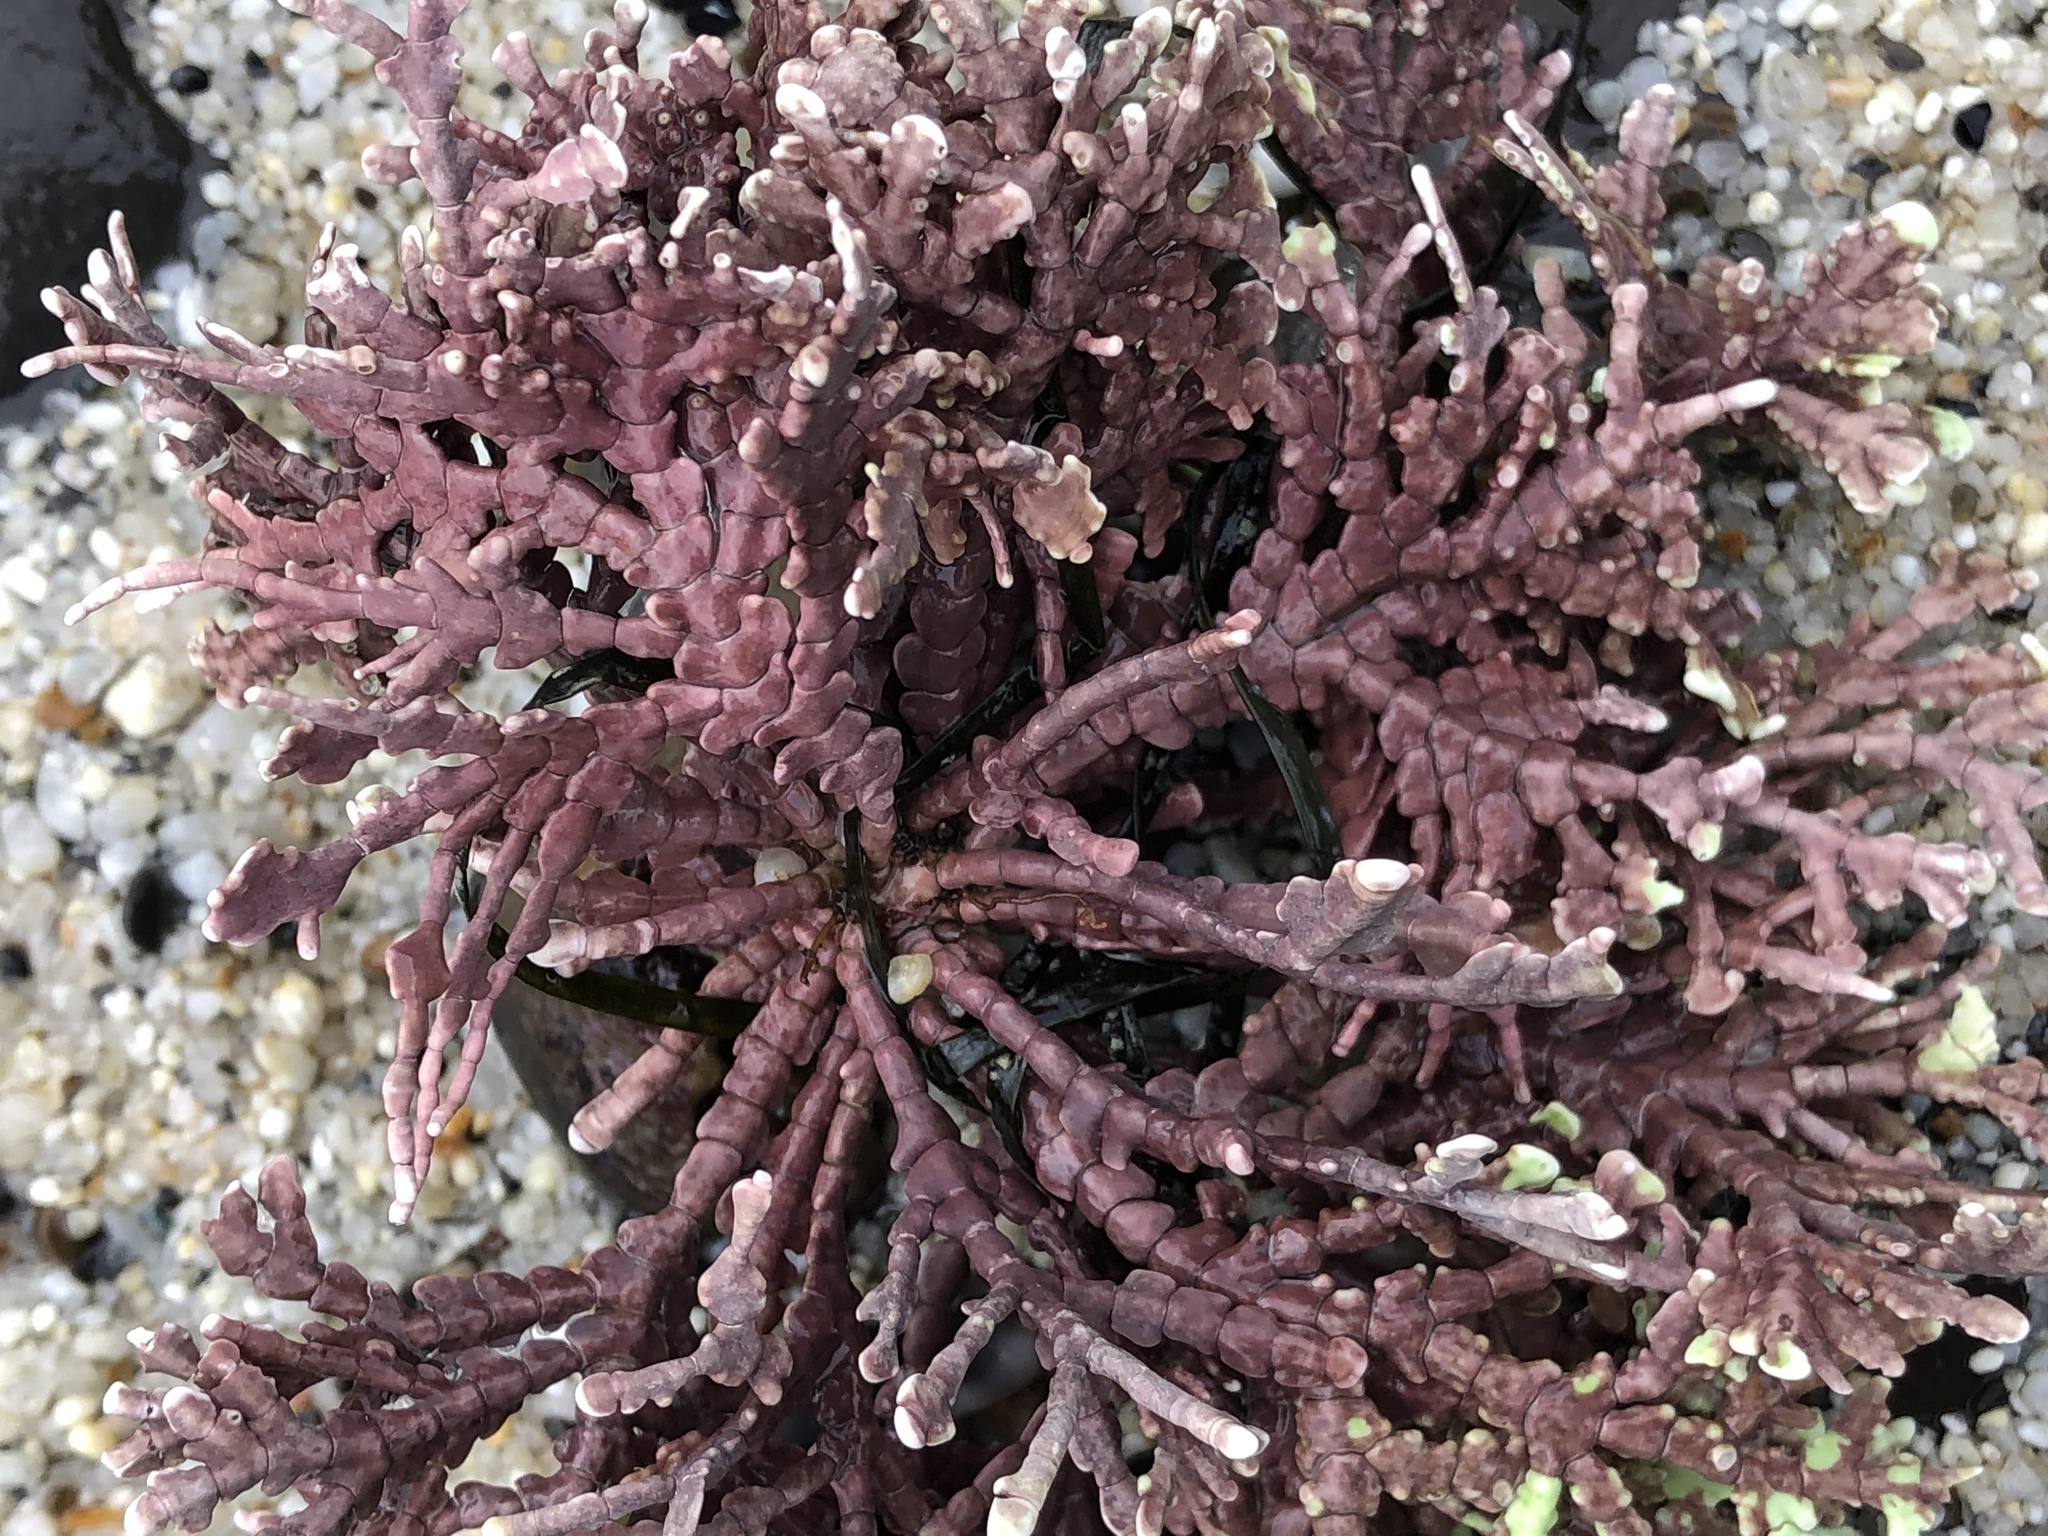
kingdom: Plantae
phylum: Rhodophyta
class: Florideophyceae
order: Corallinales
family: Corallinaceae
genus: Calliarthron
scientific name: Calliarthron tuberculosum
